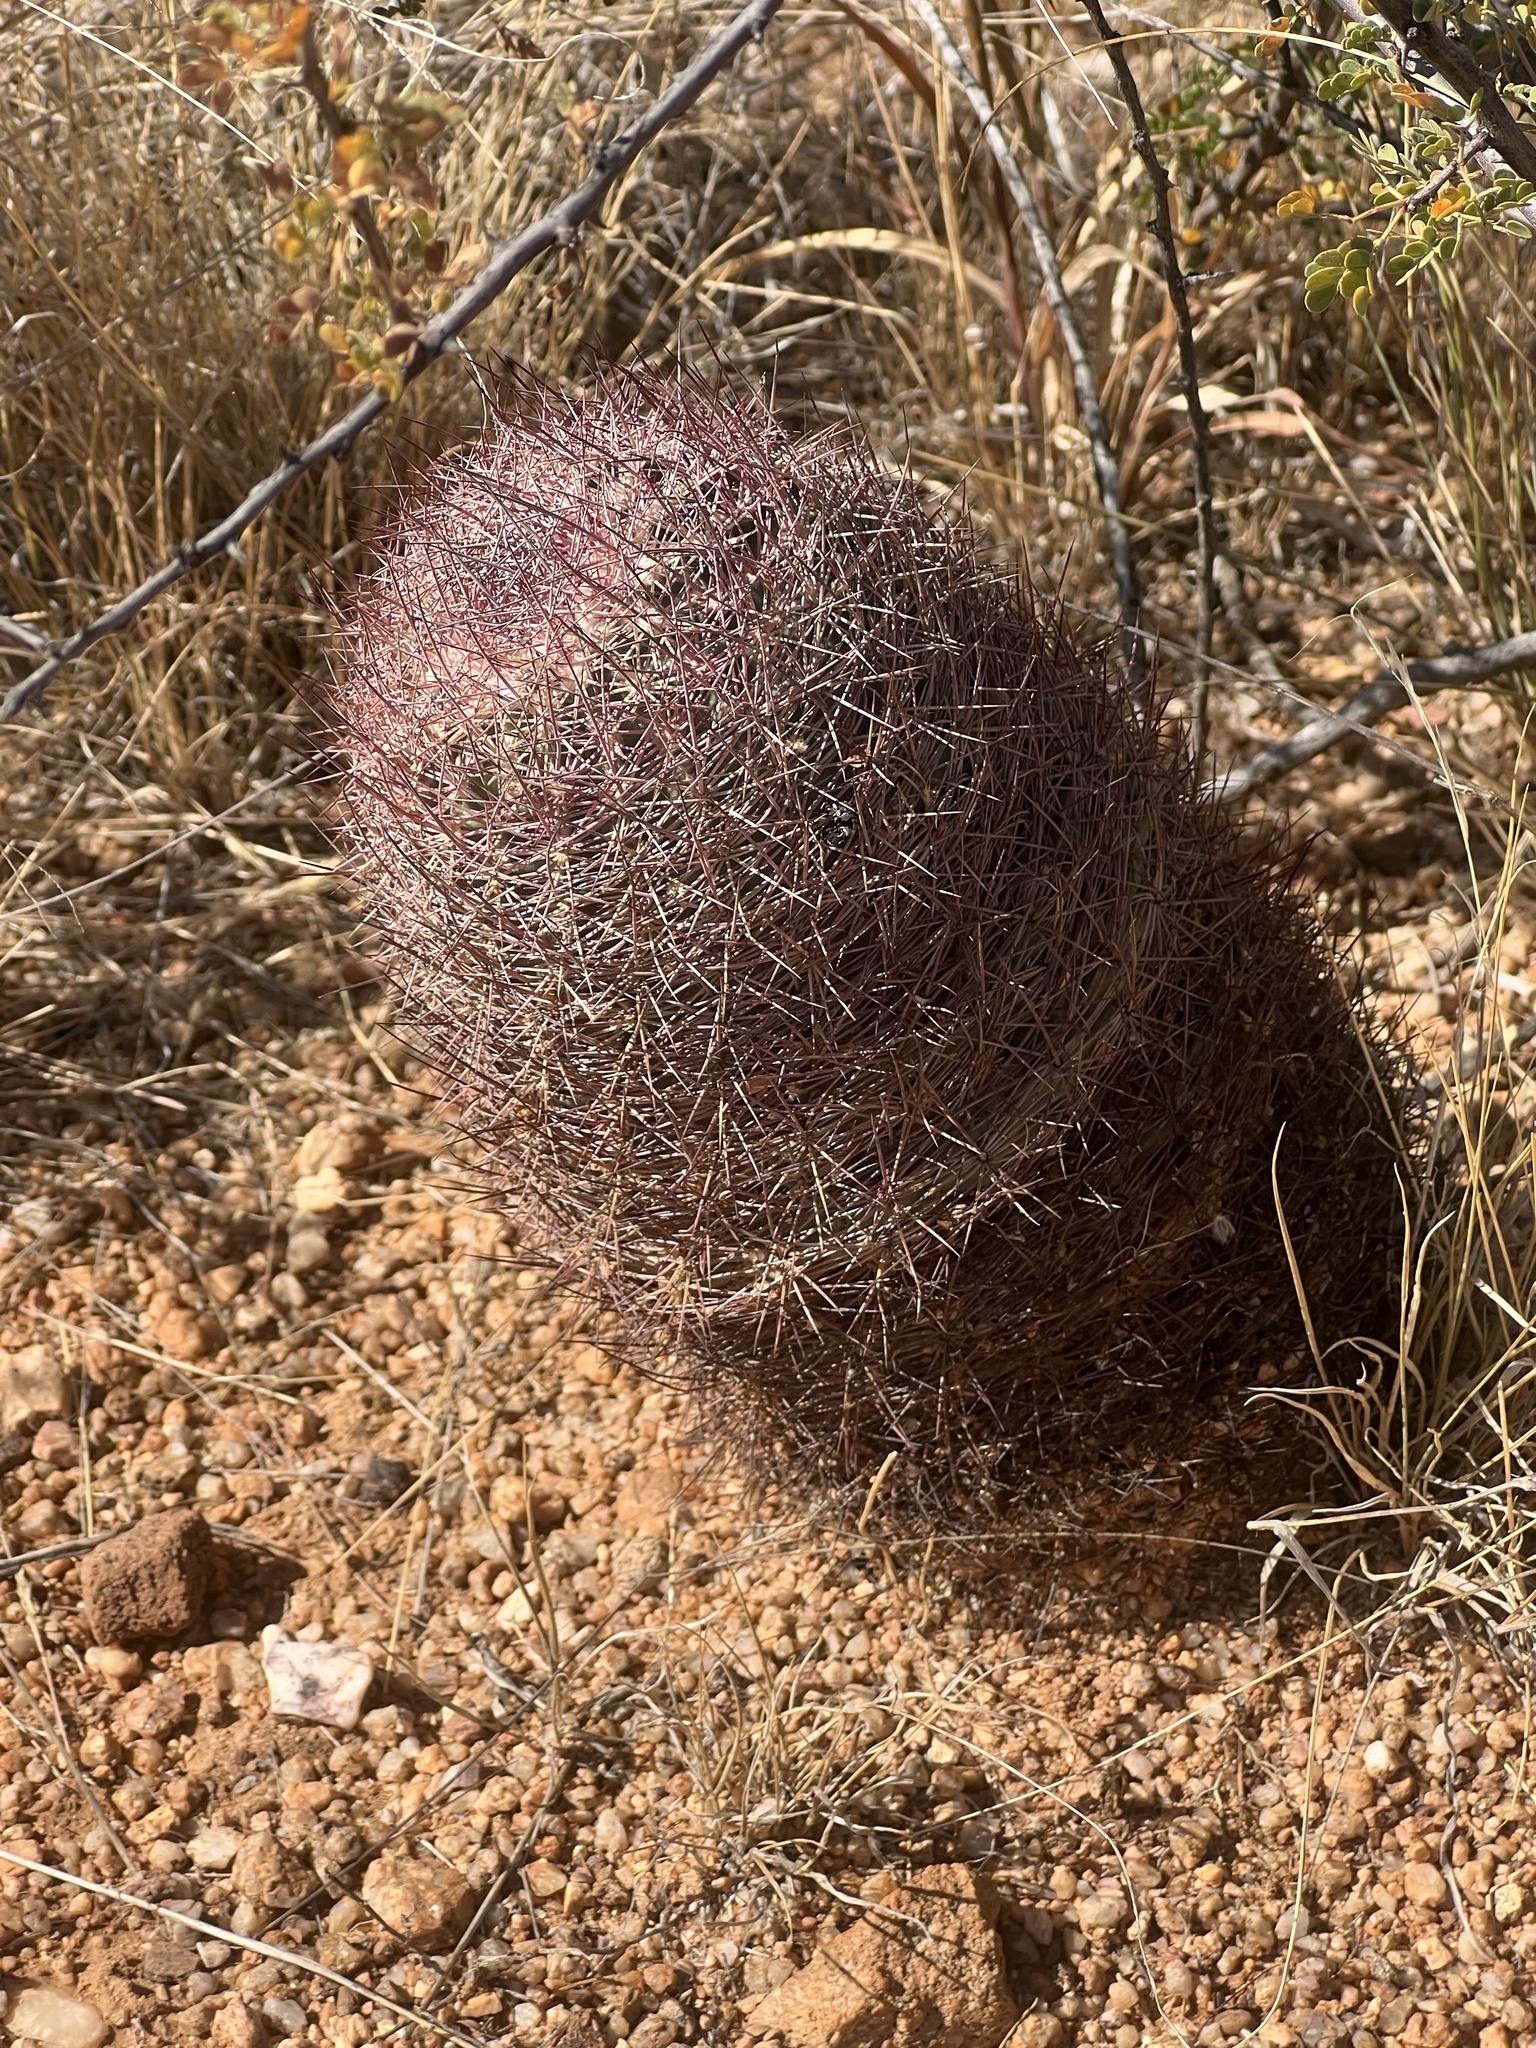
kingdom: Plantae
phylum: Tracheophyta
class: Magnoliopsida
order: Caryophyllales
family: Cactaceae
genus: Sclerocactus
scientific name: Sclerocactus johnsonii
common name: Eight-spine fishhook cactus
